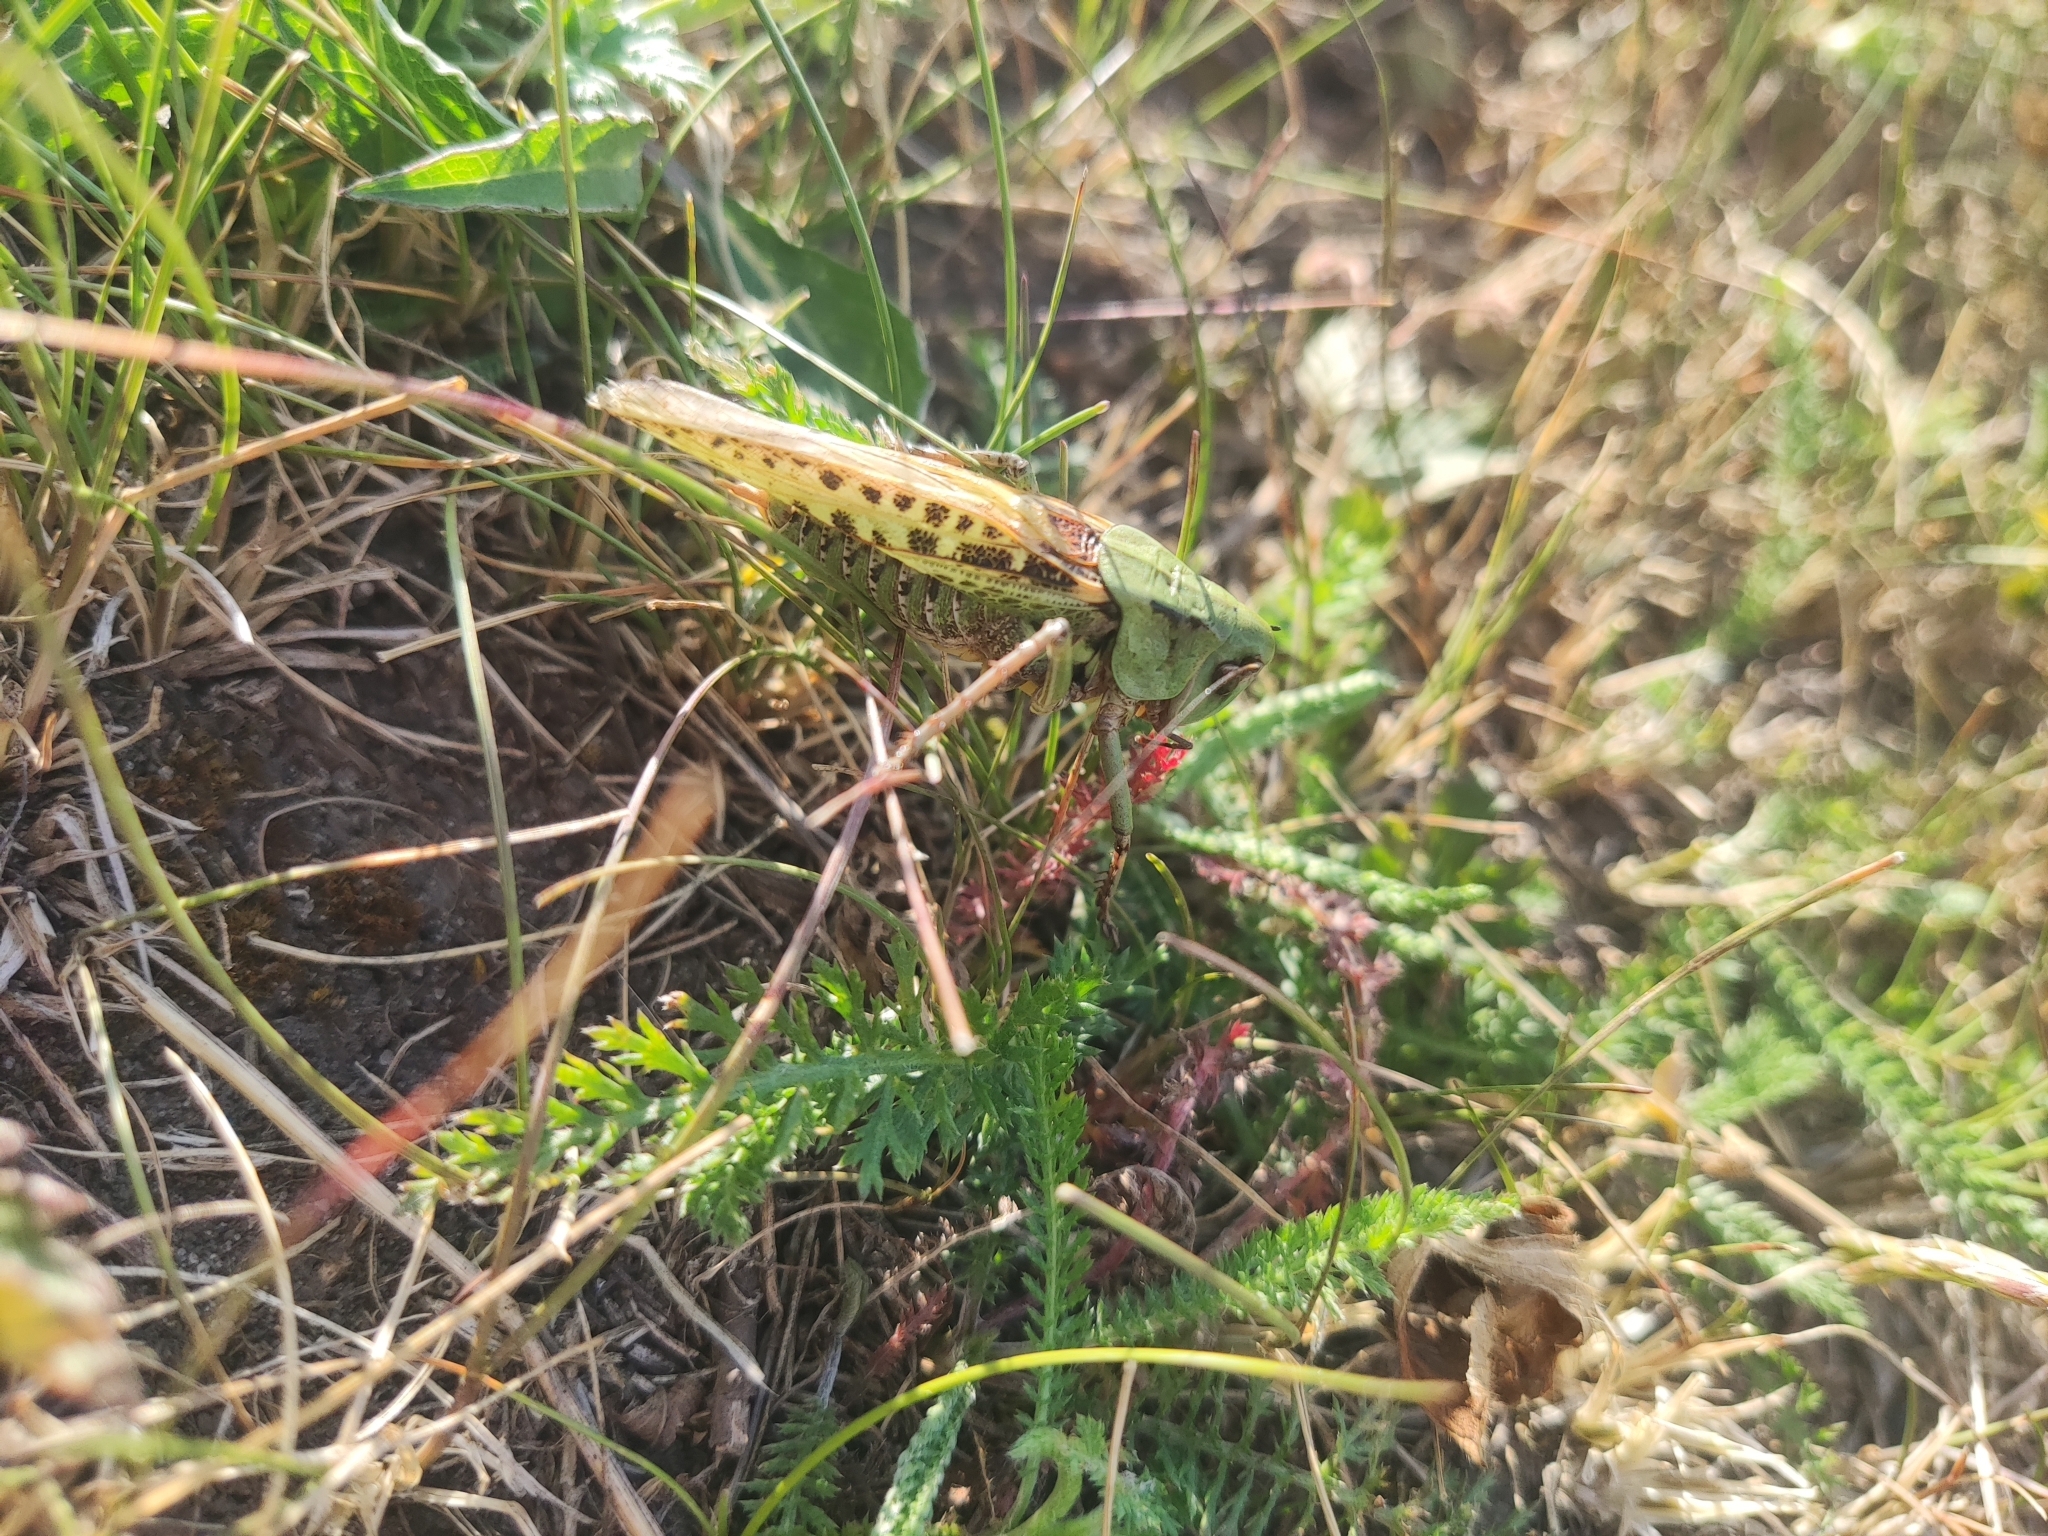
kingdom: Animalia
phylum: Arthropoda
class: Insecta
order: Orthoptera
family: Tettigoniidae
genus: Decticus
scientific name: Decticus verrucivorus
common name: Wart-biter
